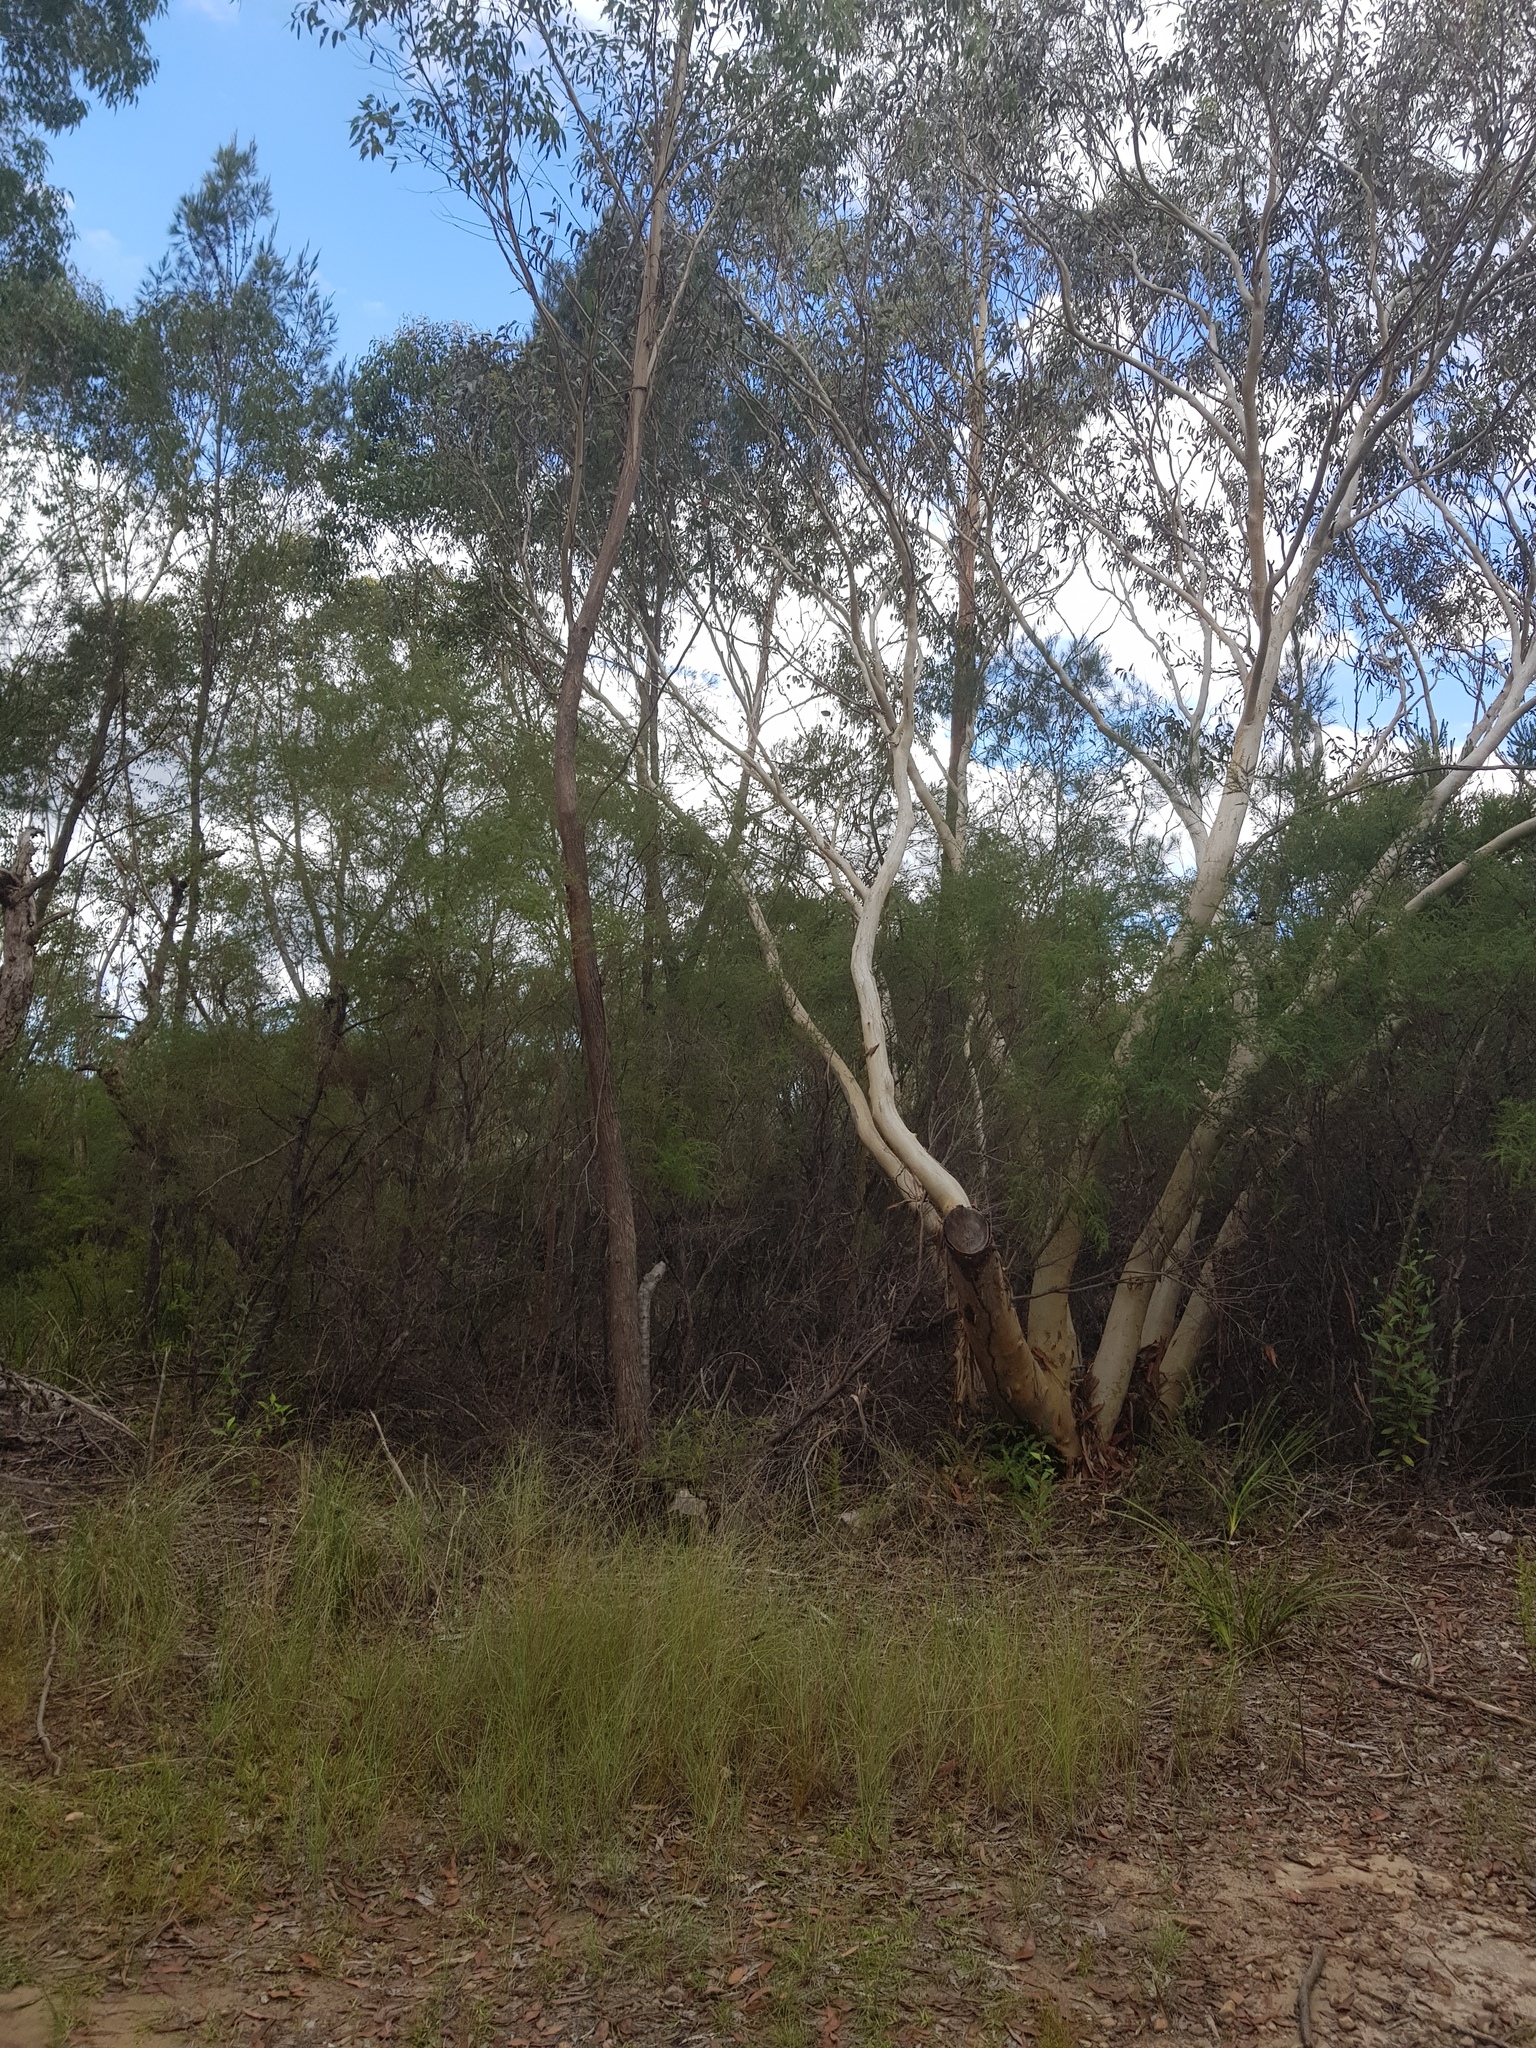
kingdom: Animalia
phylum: Arthropoda
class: Insecta
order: Lepidoptera
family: Papilionidae
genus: Papilio
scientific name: Papilio aegeus
